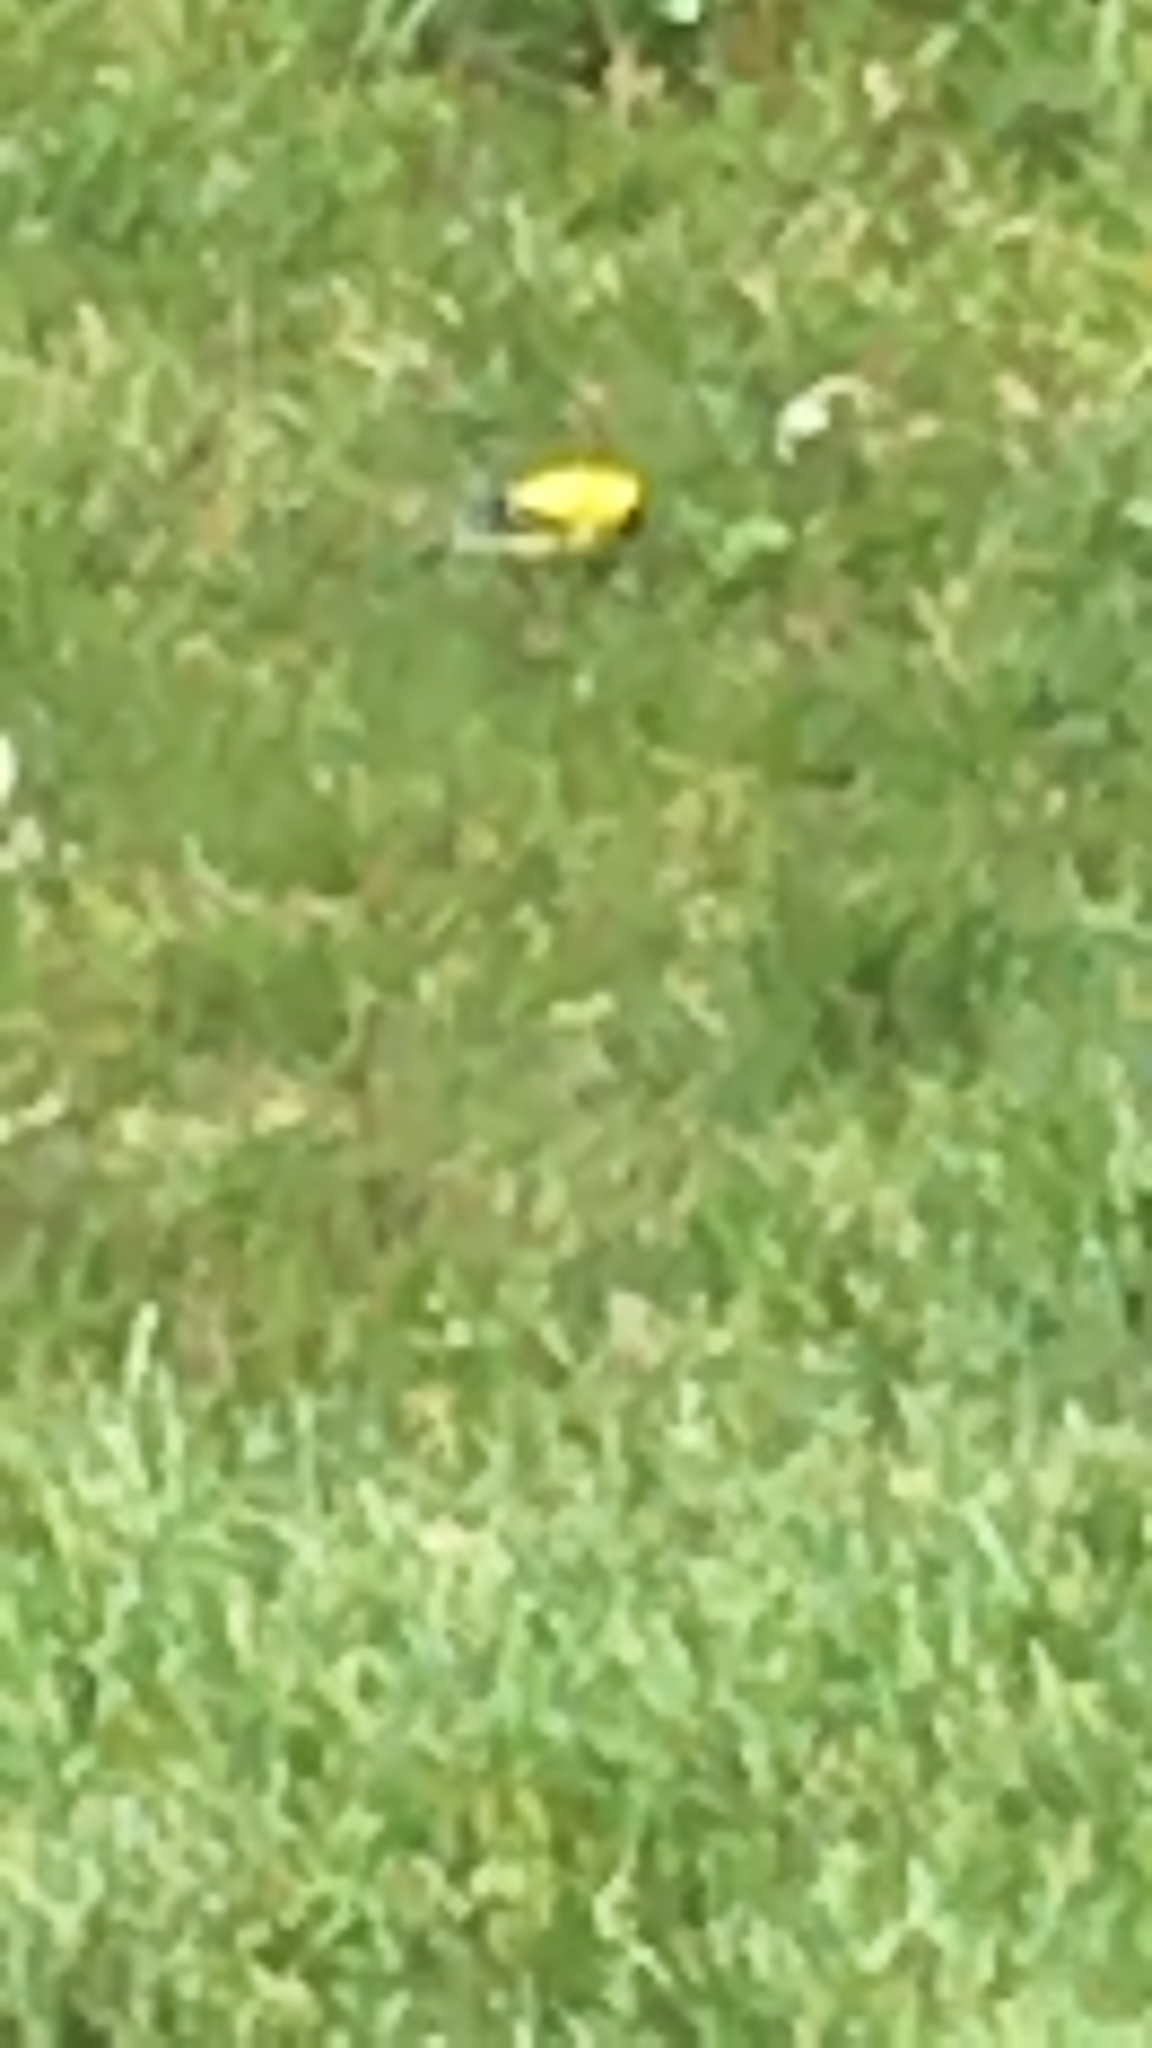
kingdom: Animalia
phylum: Chordata
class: Aves
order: Passeriformes
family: Fringillidae
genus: Spinus
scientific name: Spinus tristis
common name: American goldfinch
